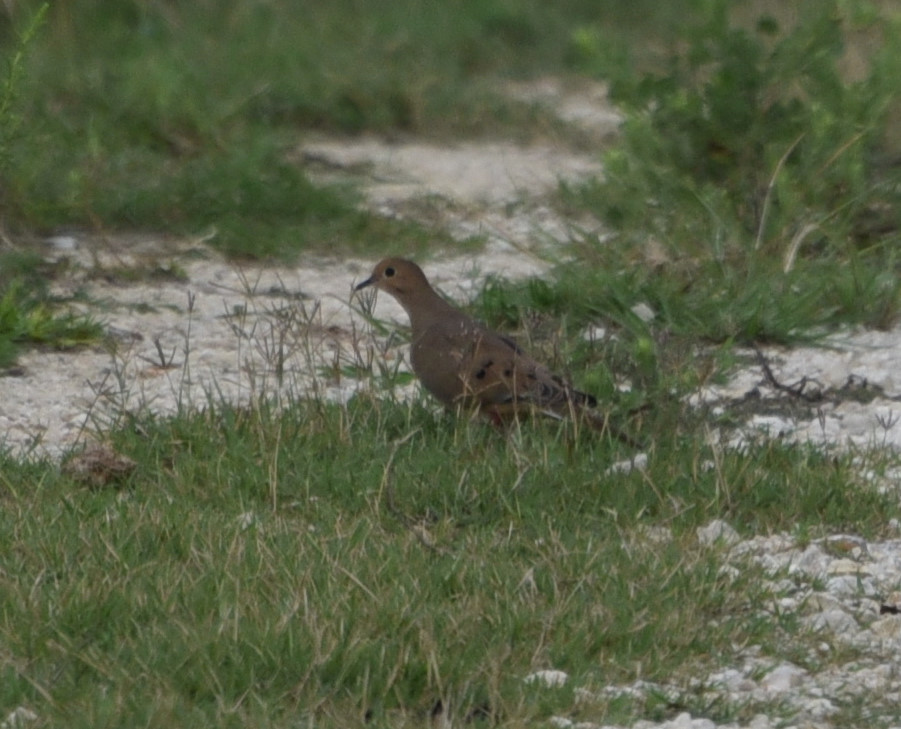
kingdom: Animalia
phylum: Chordata
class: Aves
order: Columbiformes
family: Columbidae
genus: Zenaida
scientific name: Zenaida macroura
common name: Mourning dove
